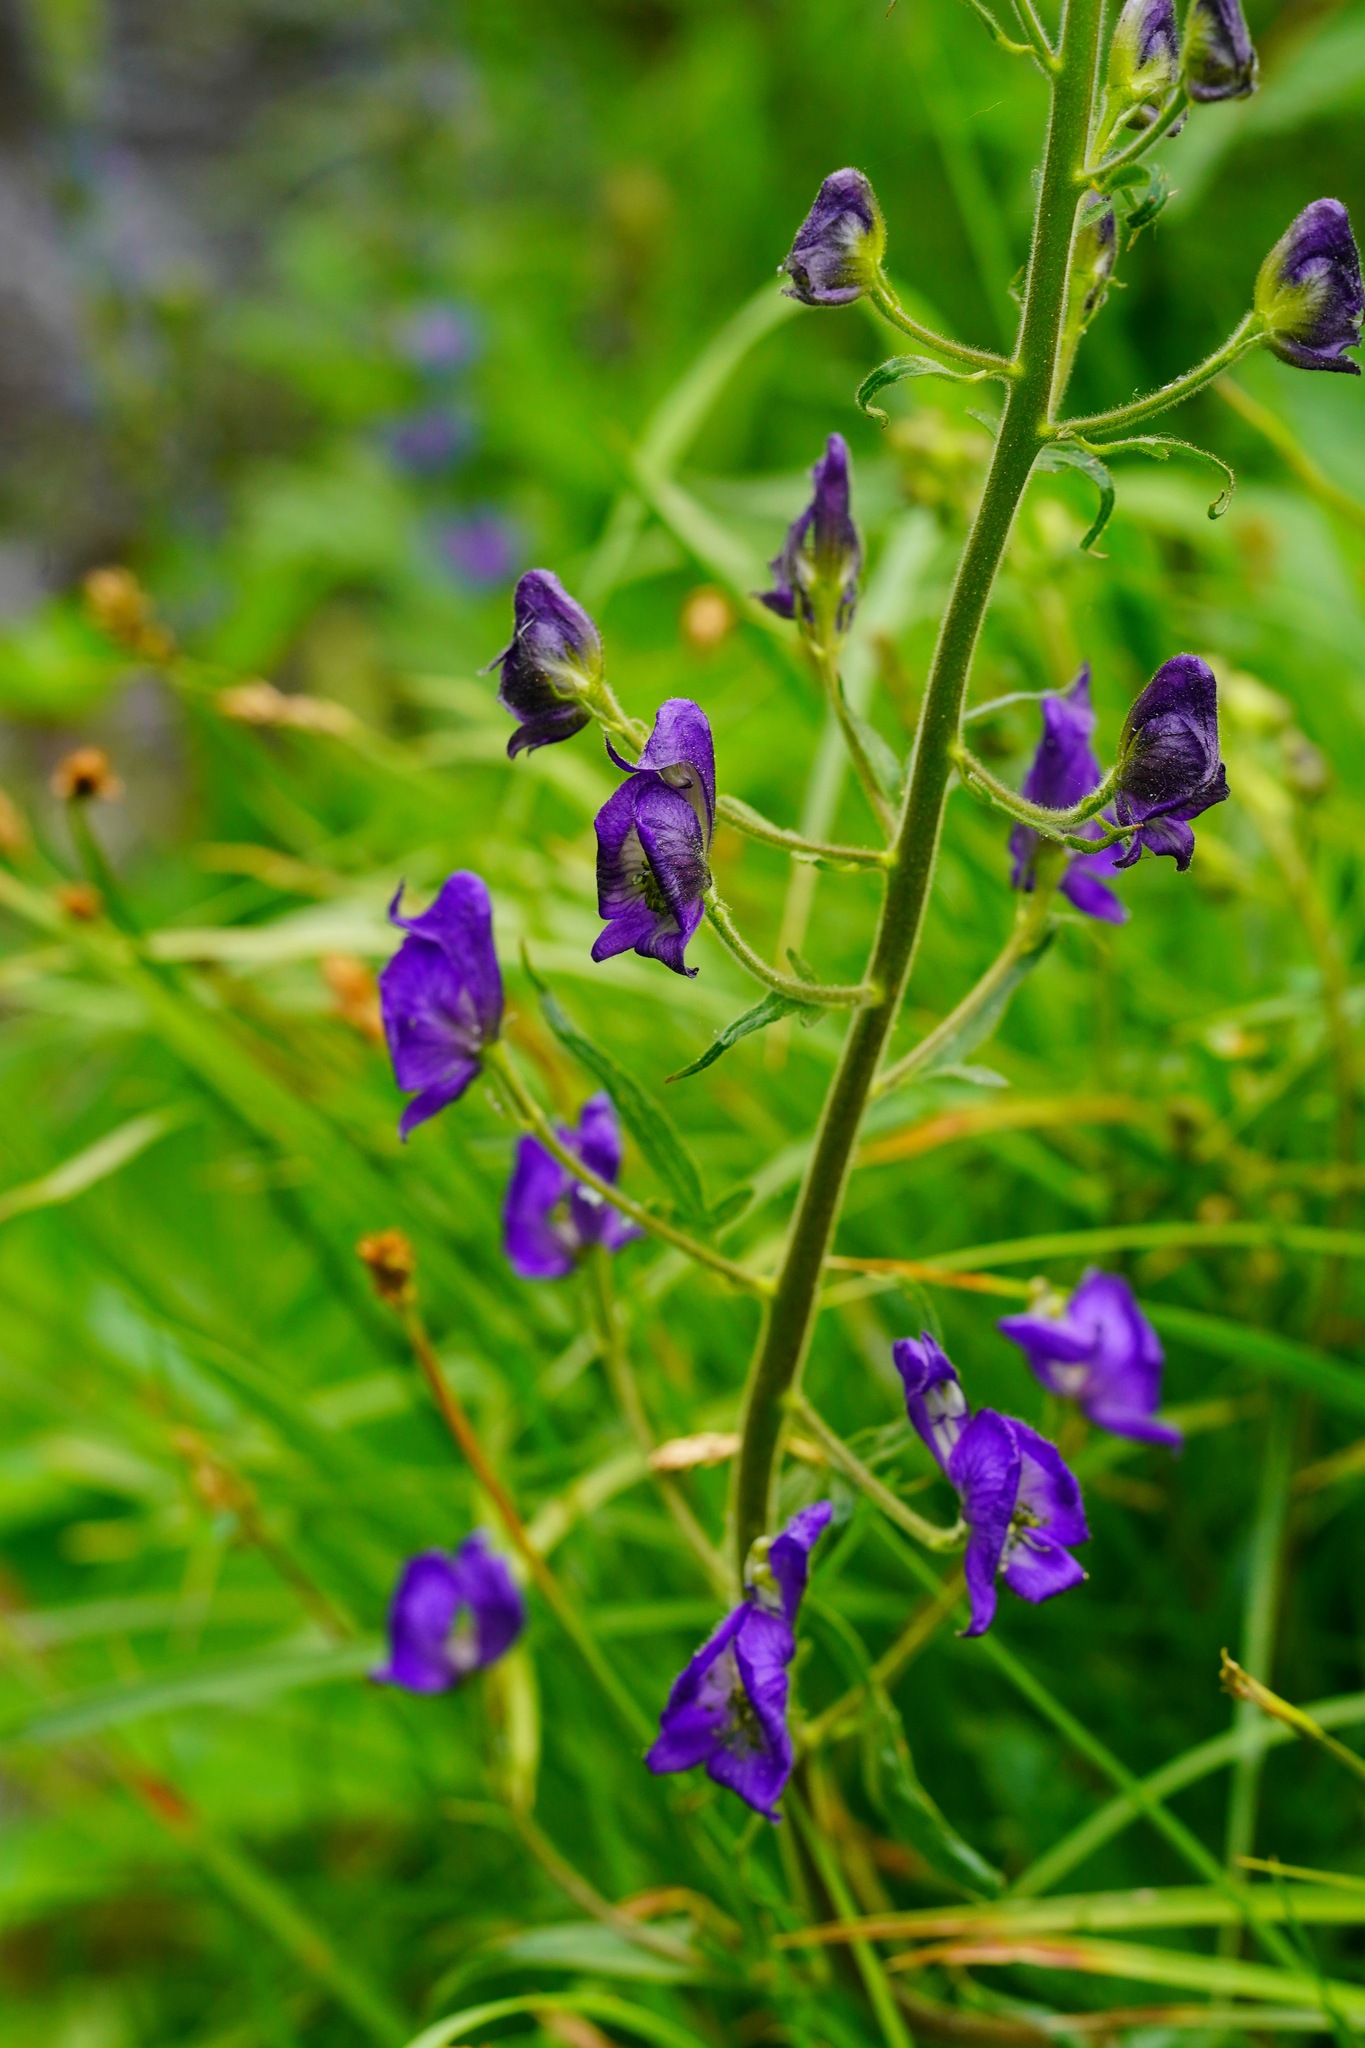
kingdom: Plantae
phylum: Tracheophyta
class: Magnoliopsida
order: Ranunculales
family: Ranunculaceae
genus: Aconitum
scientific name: Aconitum columbianum
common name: Columbia aconite
